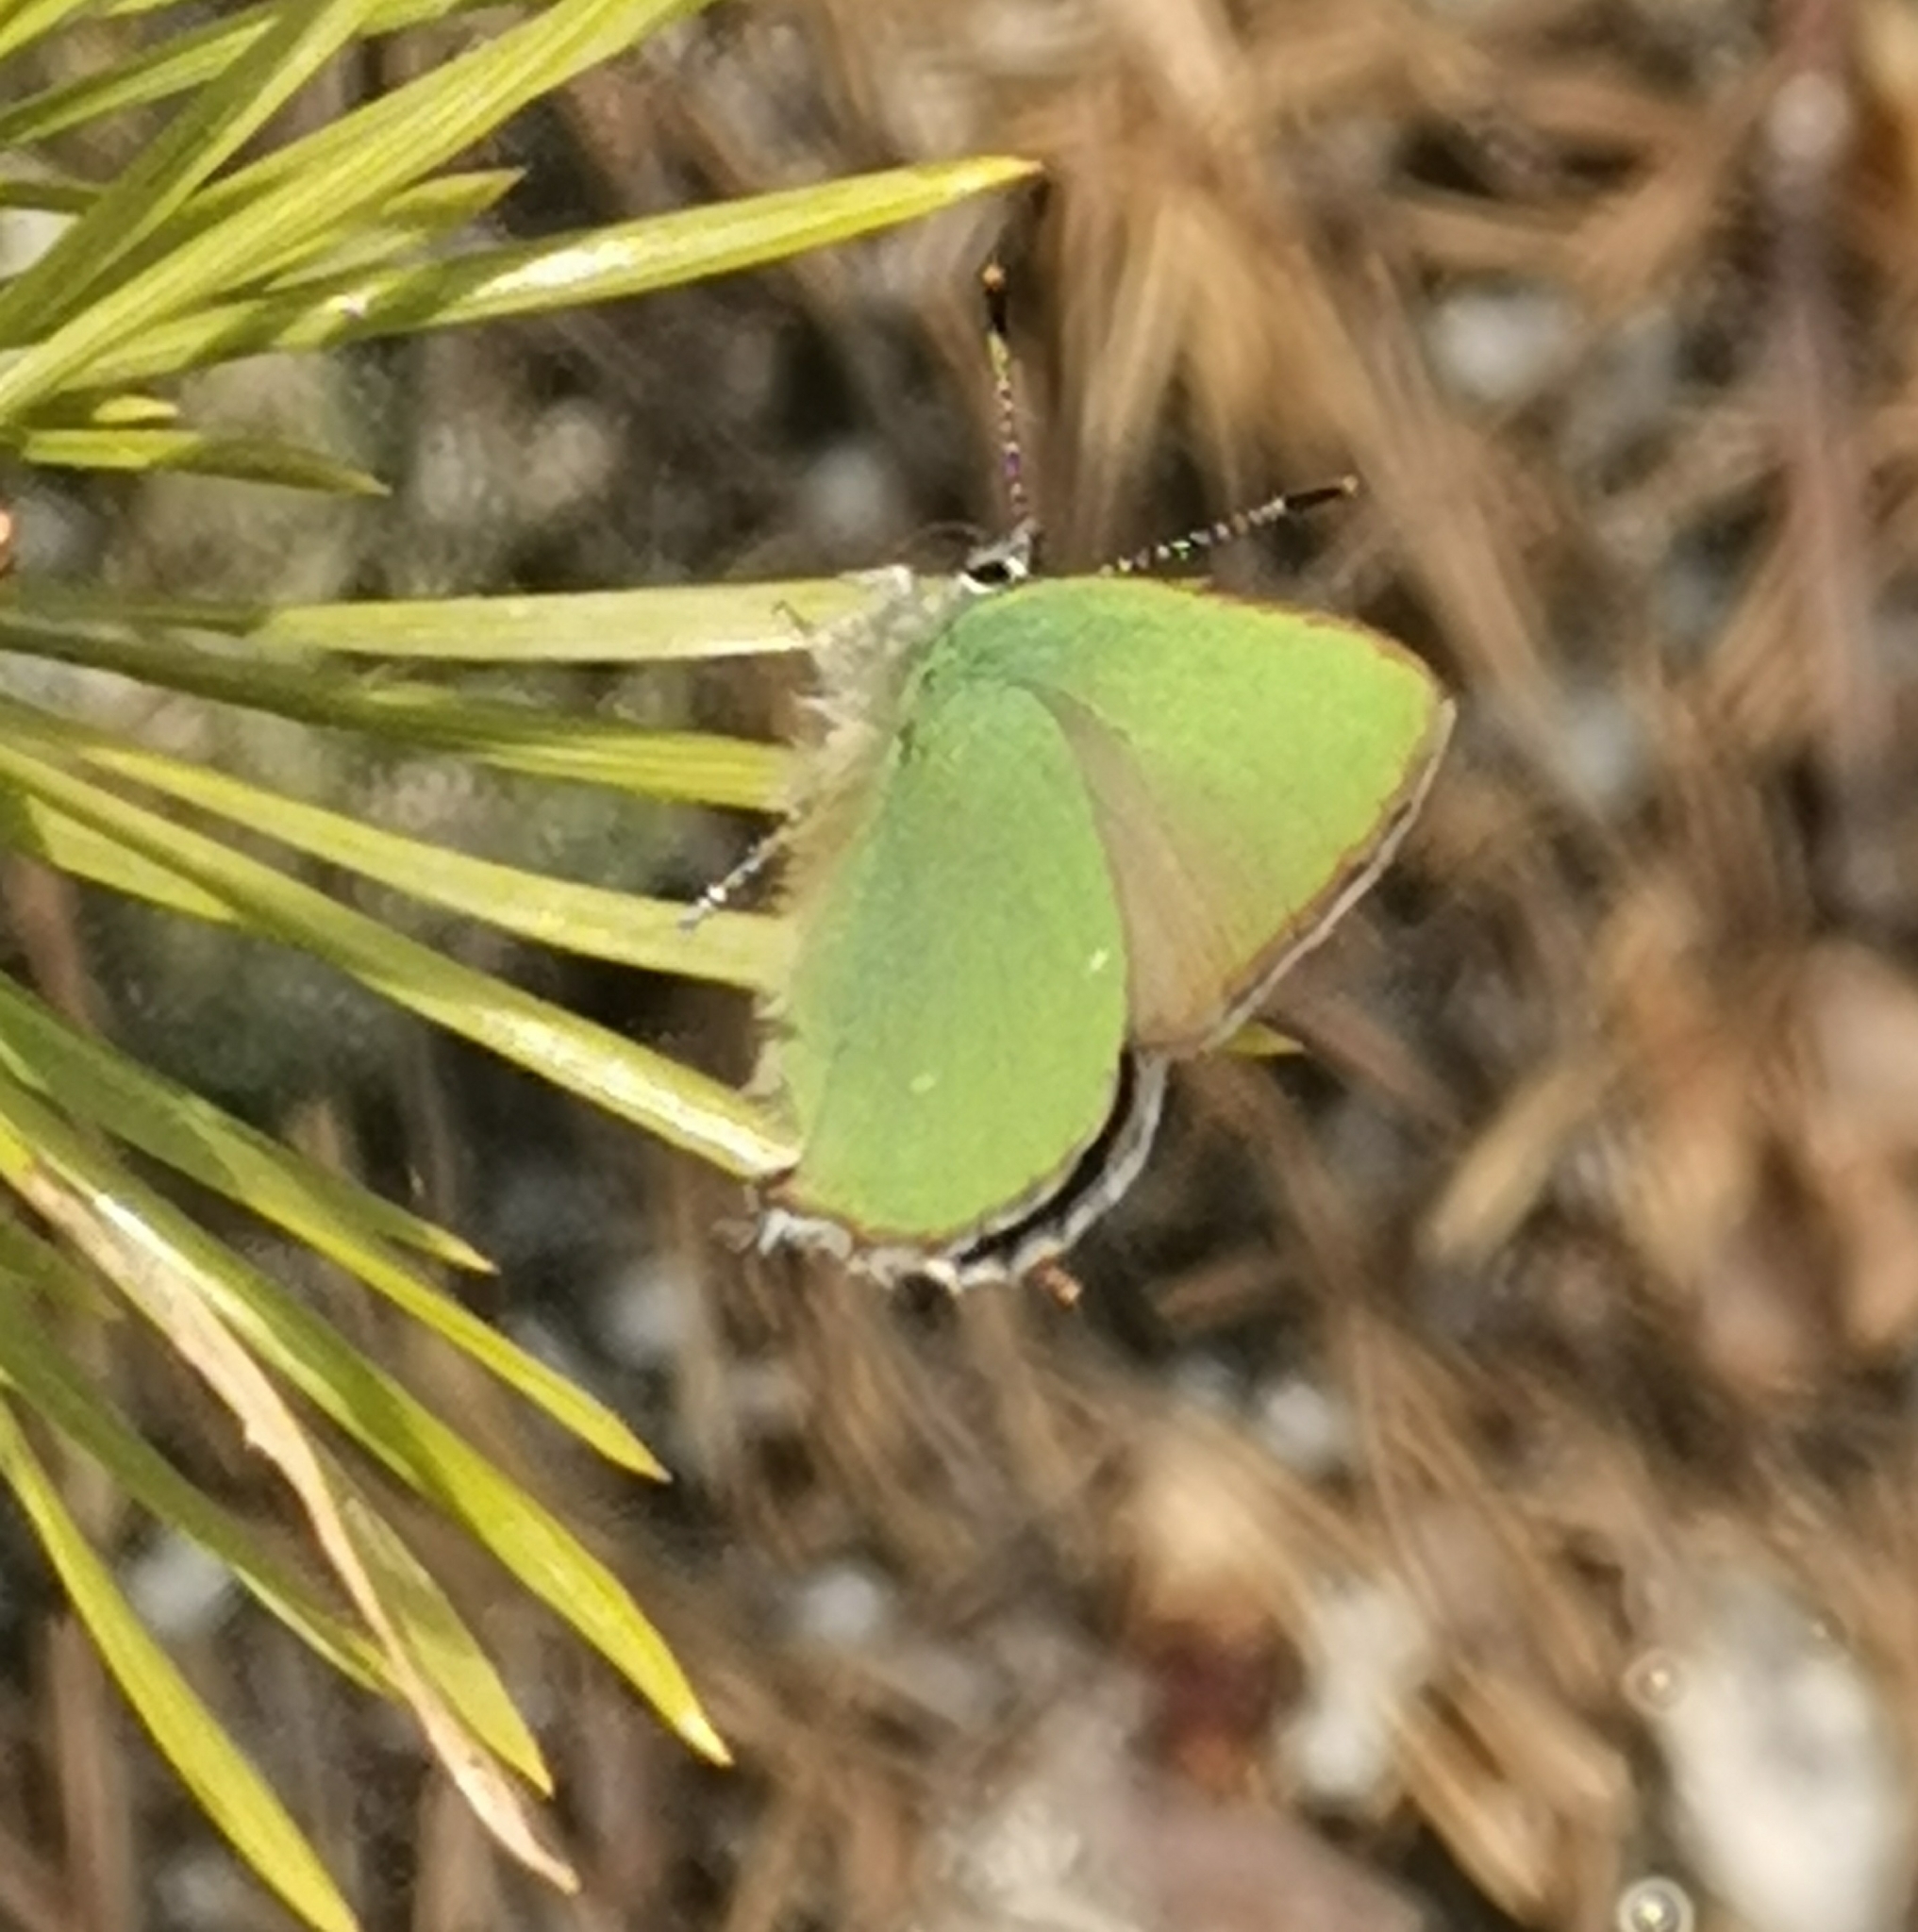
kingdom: Animalia
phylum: Arthropoda
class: Insecta
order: Lepidoptera
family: Lycaenidae
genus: Callophrys
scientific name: Callophrys rubi
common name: Green hairstreak
